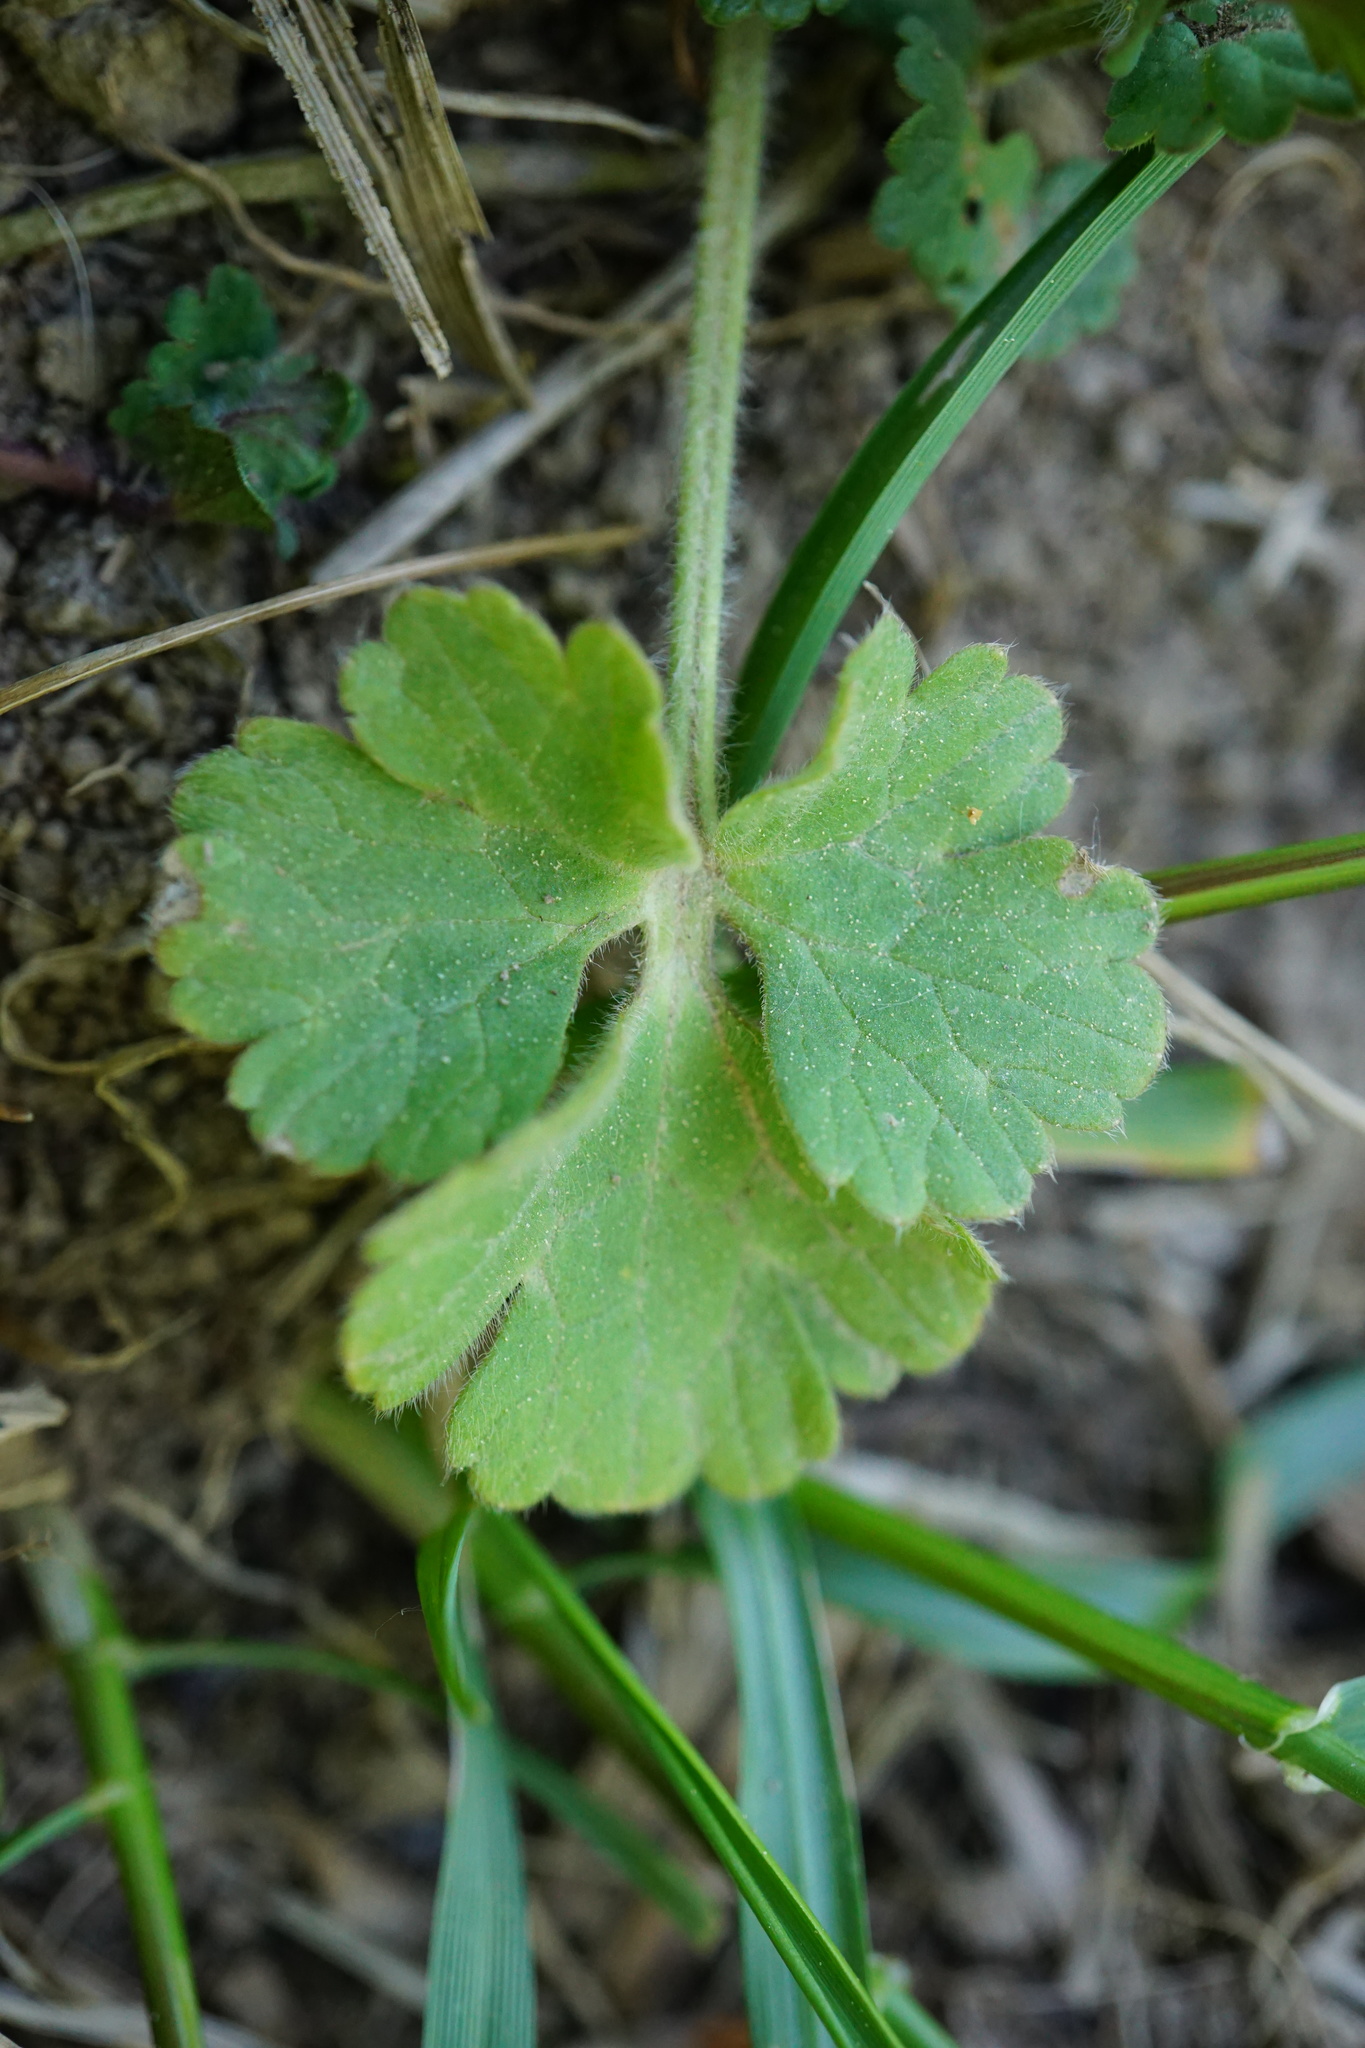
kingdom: Plantae
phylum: Tracheophyta
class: Magnoliopsida
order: Ranunculales
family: Ranunculaceae
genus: Ranunculus
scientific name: Ranunculus bulbosus
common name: Bulbous buttercup
